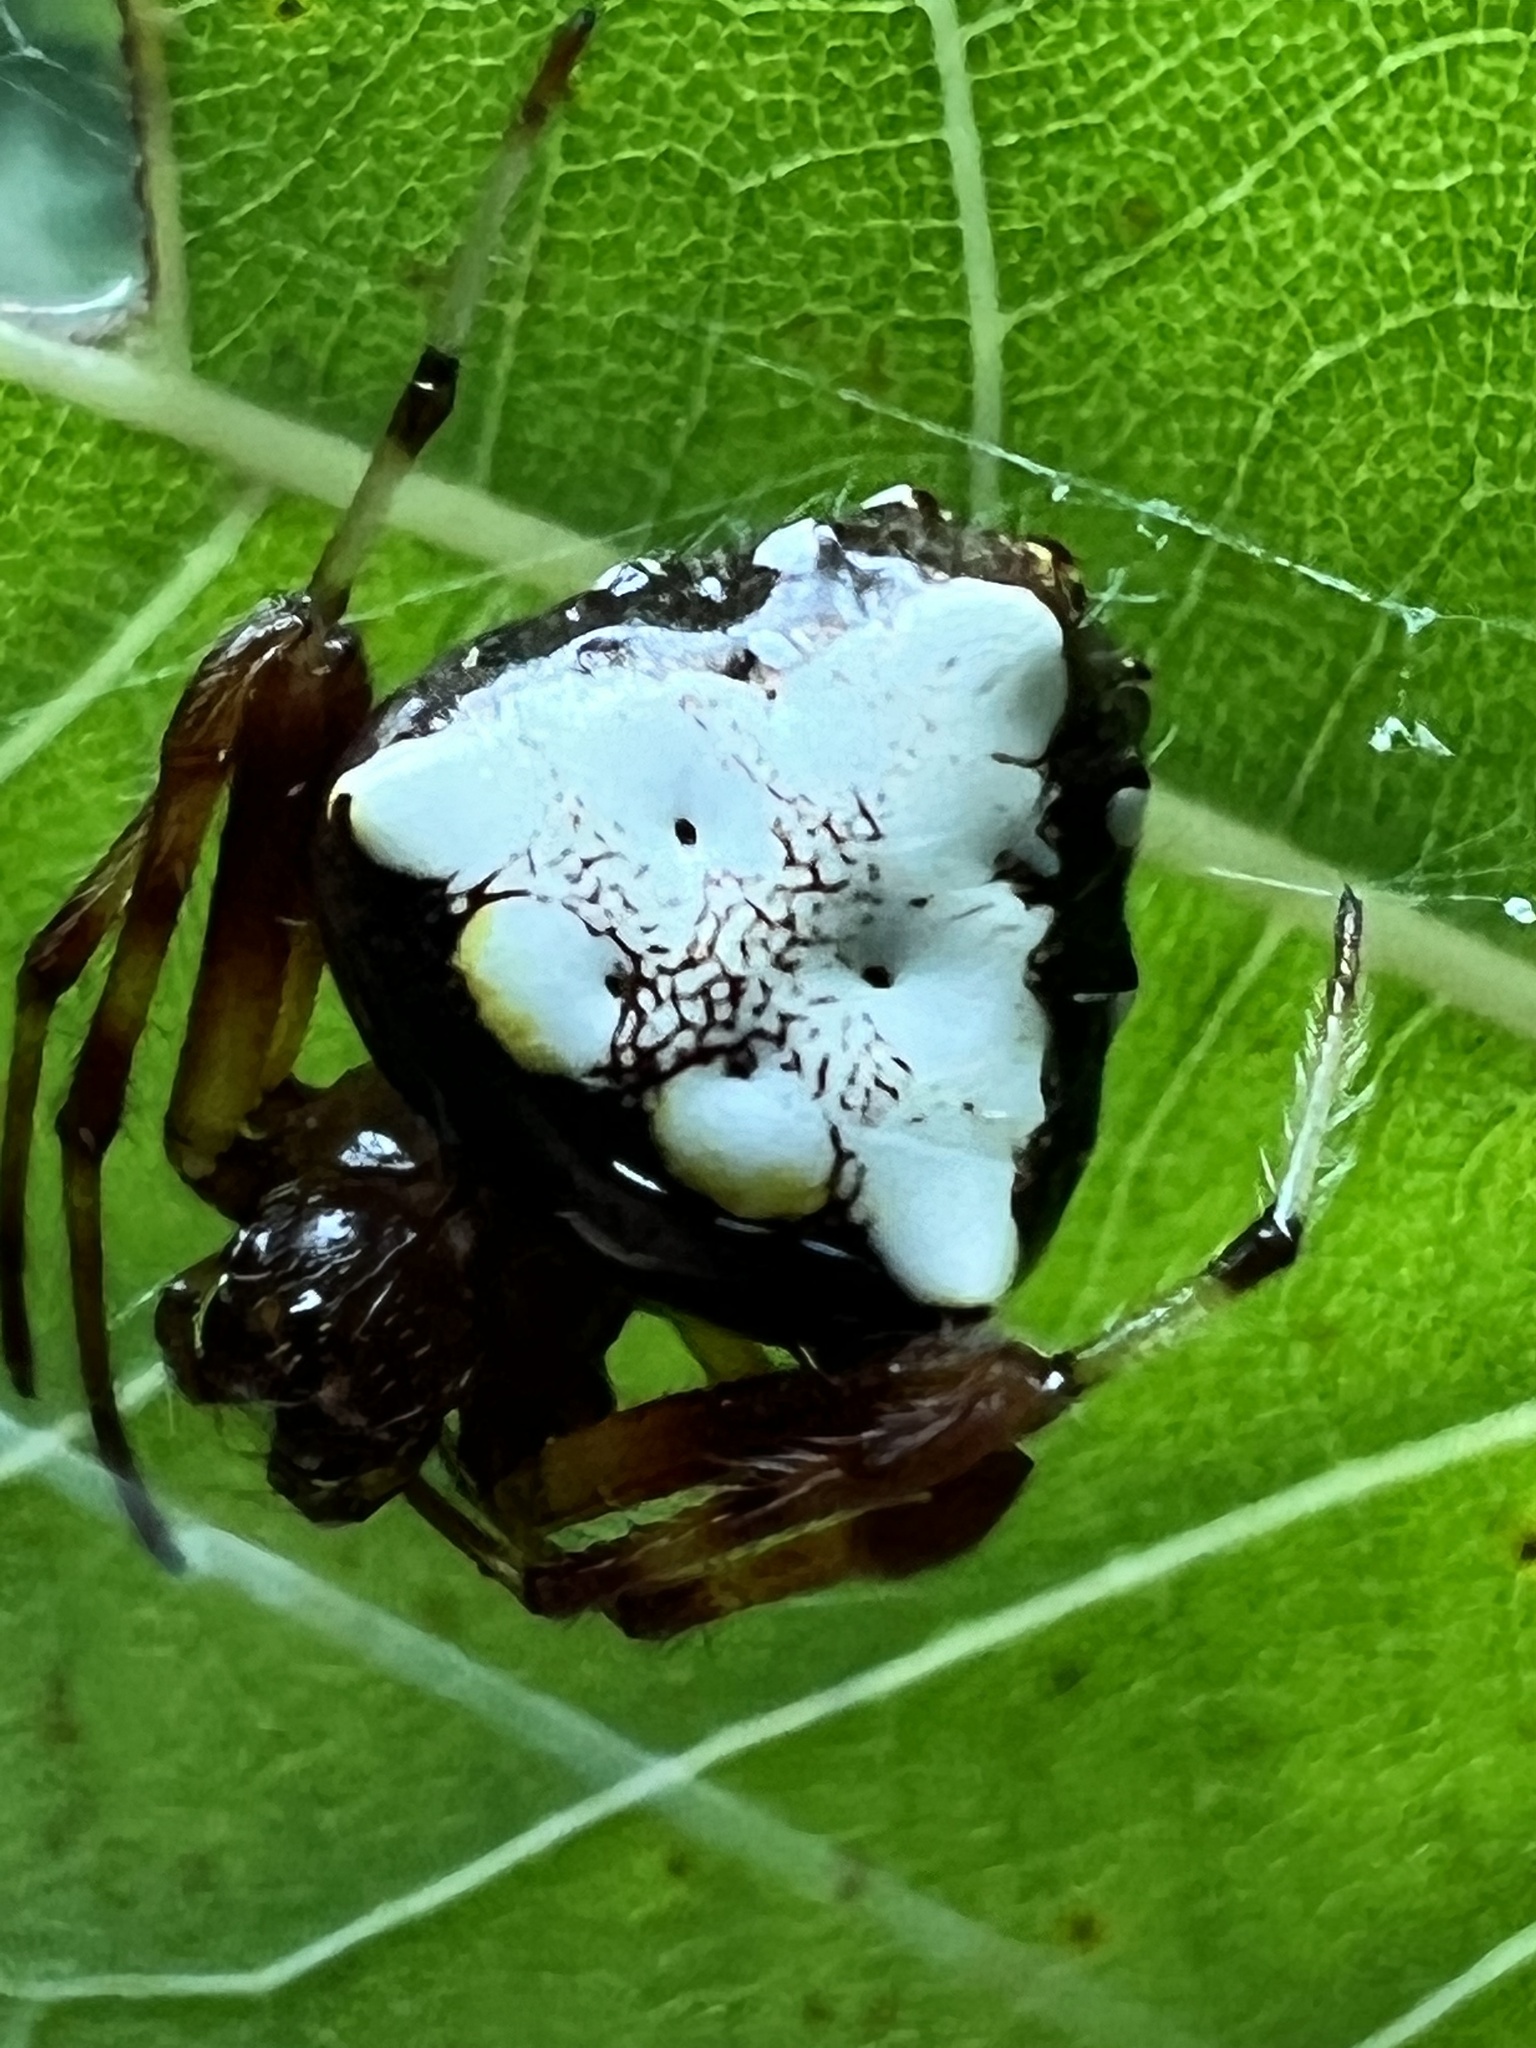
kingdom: Animalia
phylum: Arthropoda
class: Arachnida
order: Araneae
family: Araneidae
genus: Verrucosa
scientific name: Verrucosa arenata
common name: Orb weavers
